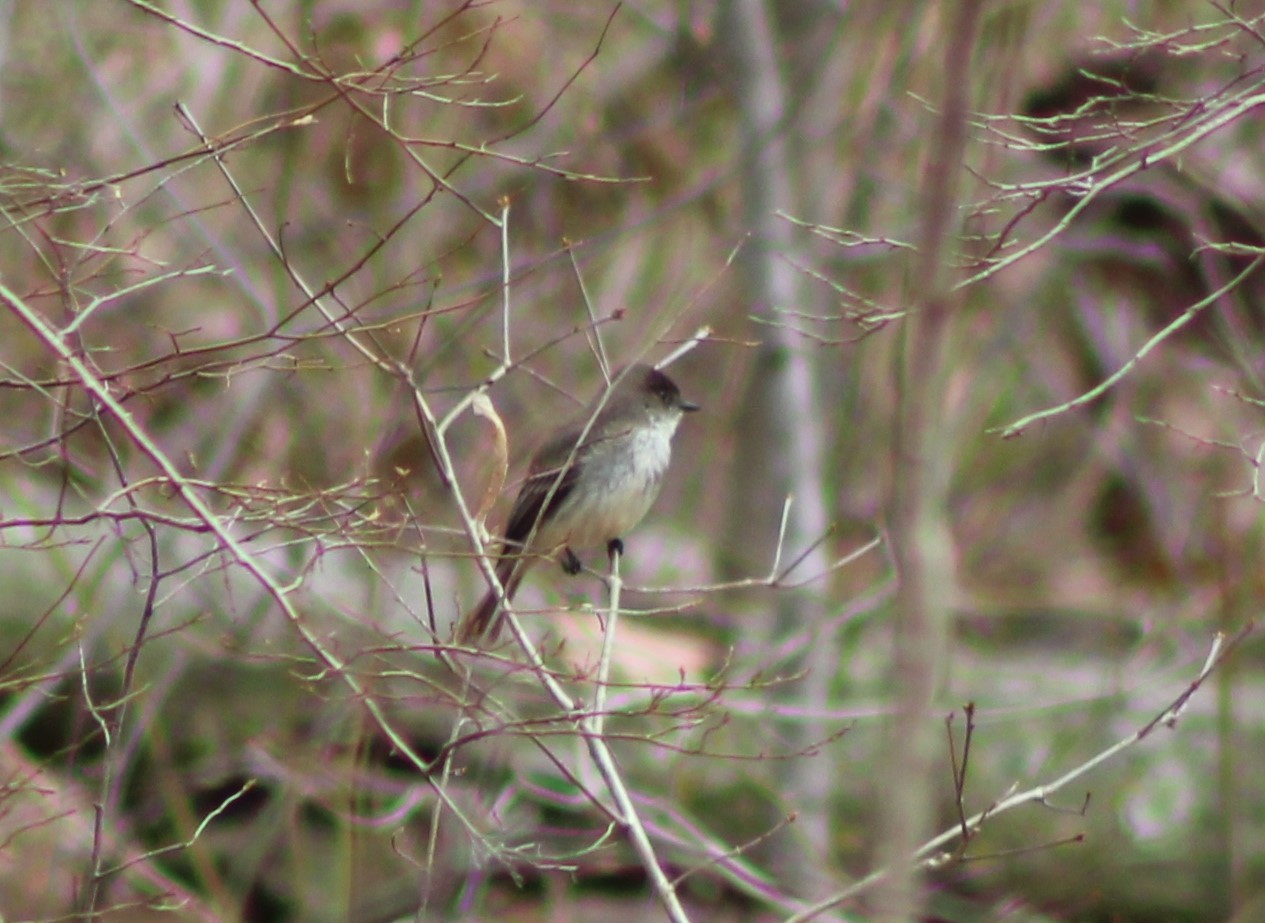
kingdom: Animalia
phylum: Chordata
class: Aves
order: Passeriformes
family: Tyrannidae
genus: Sayornis
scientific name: Sayornis phoebe
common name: Eastern phoebe
